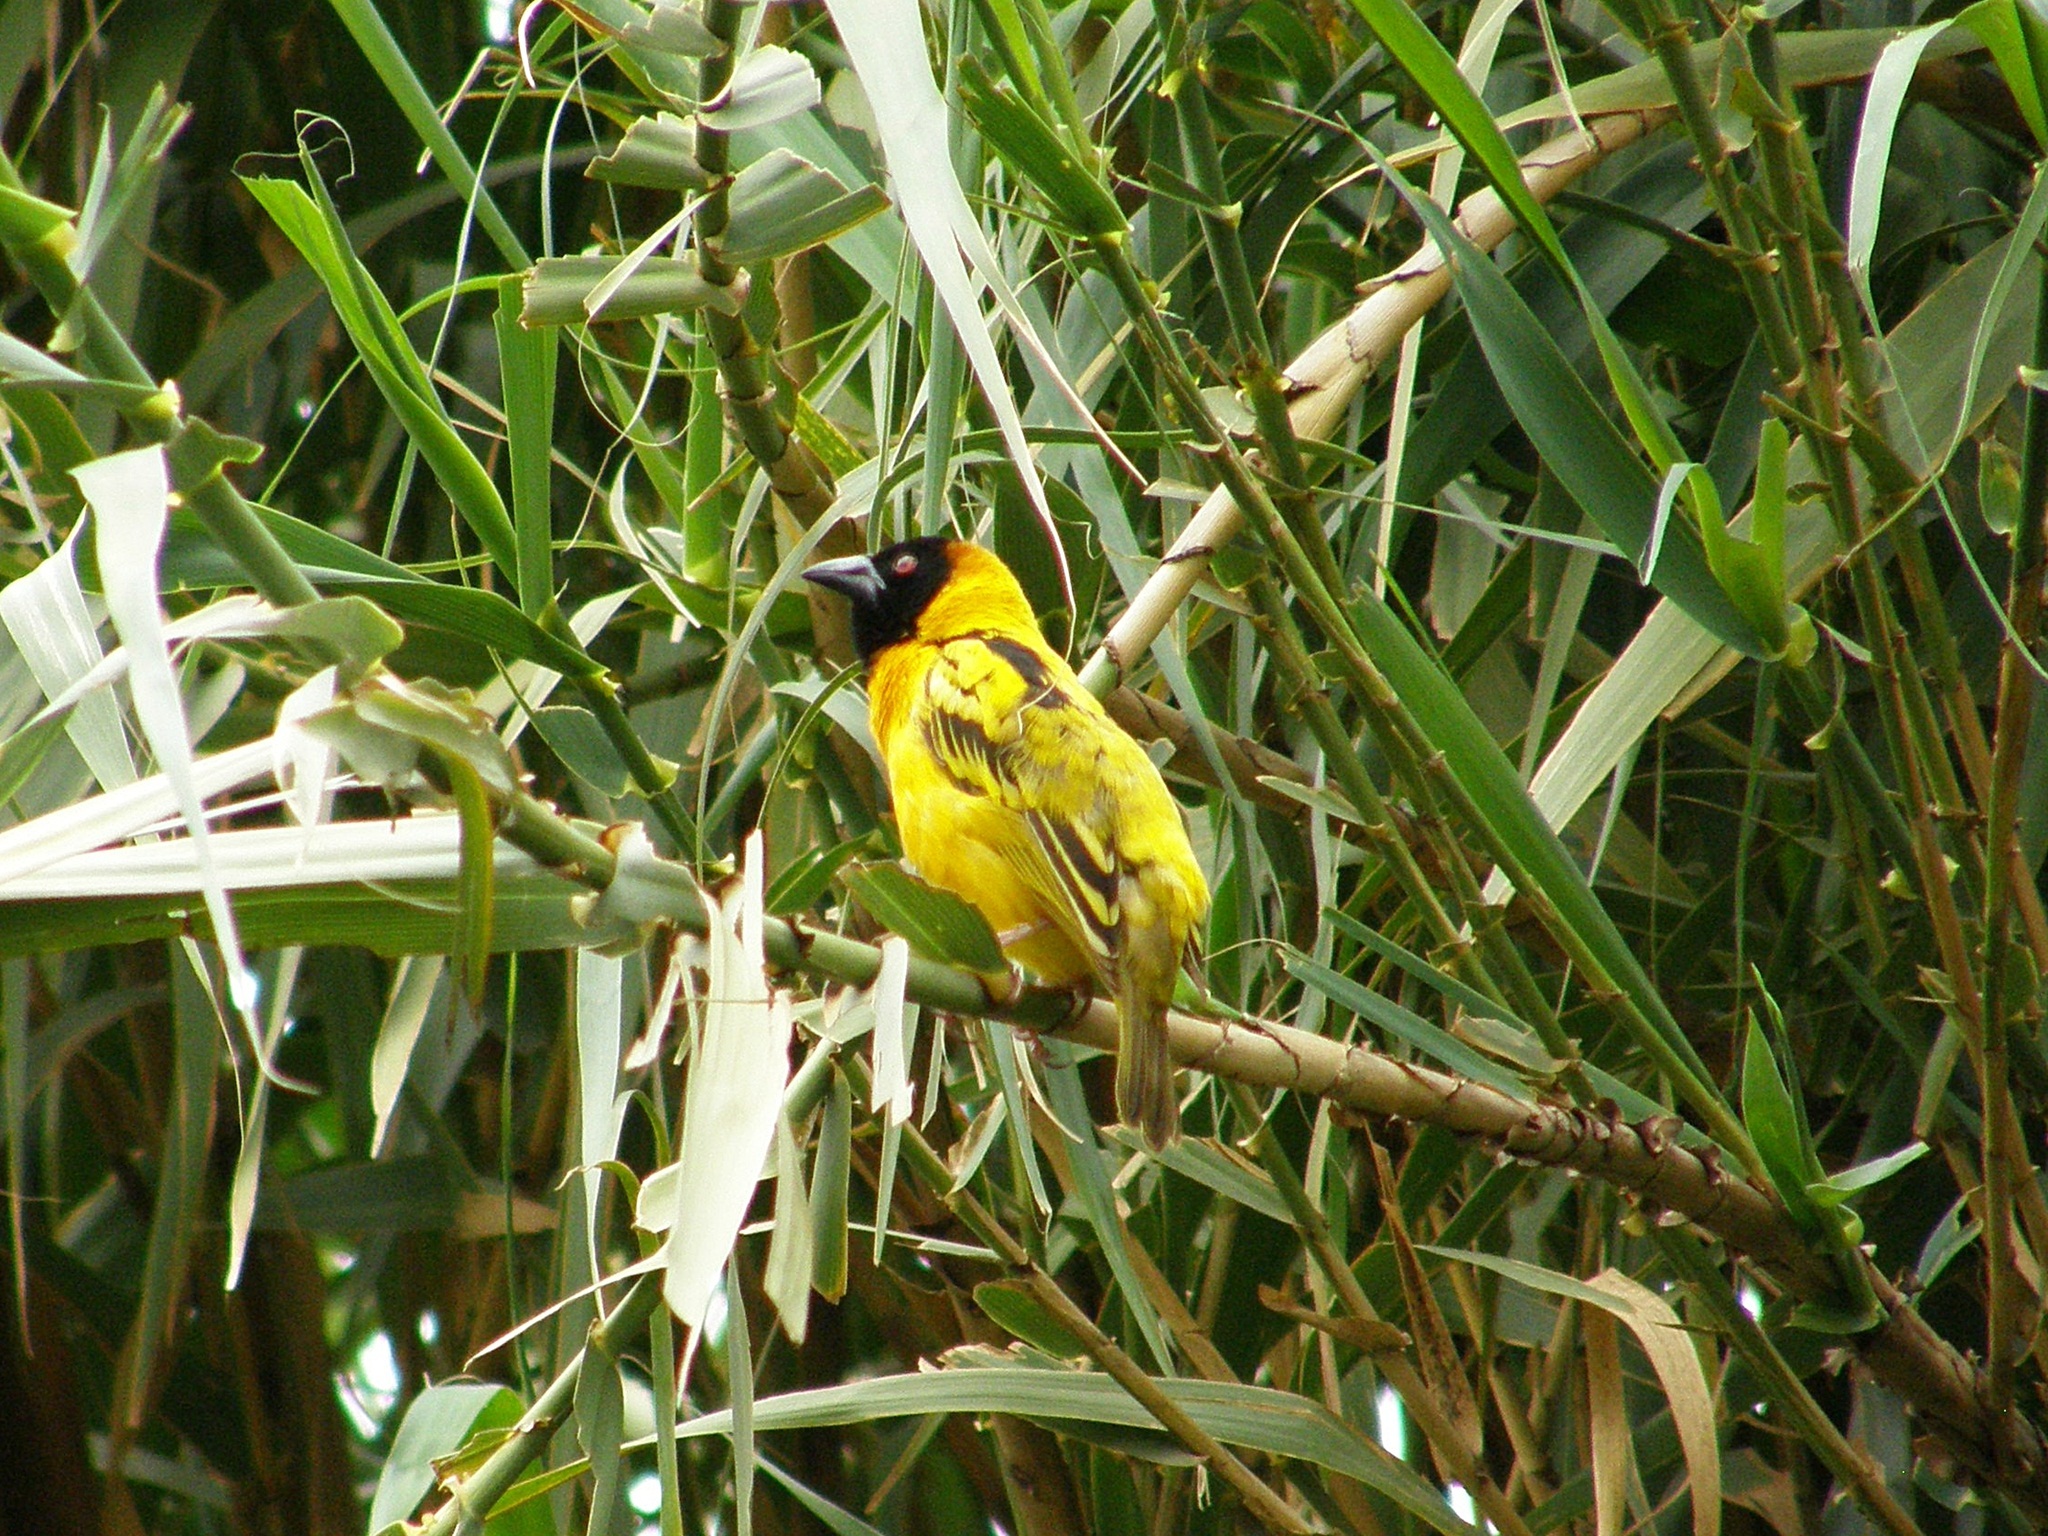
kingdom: Animalia
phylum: Chordata
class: Aves
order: Passeriformes
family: Ploceidae
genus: Ploceus
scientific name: Ploceus cucullatus
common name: Village weaver
